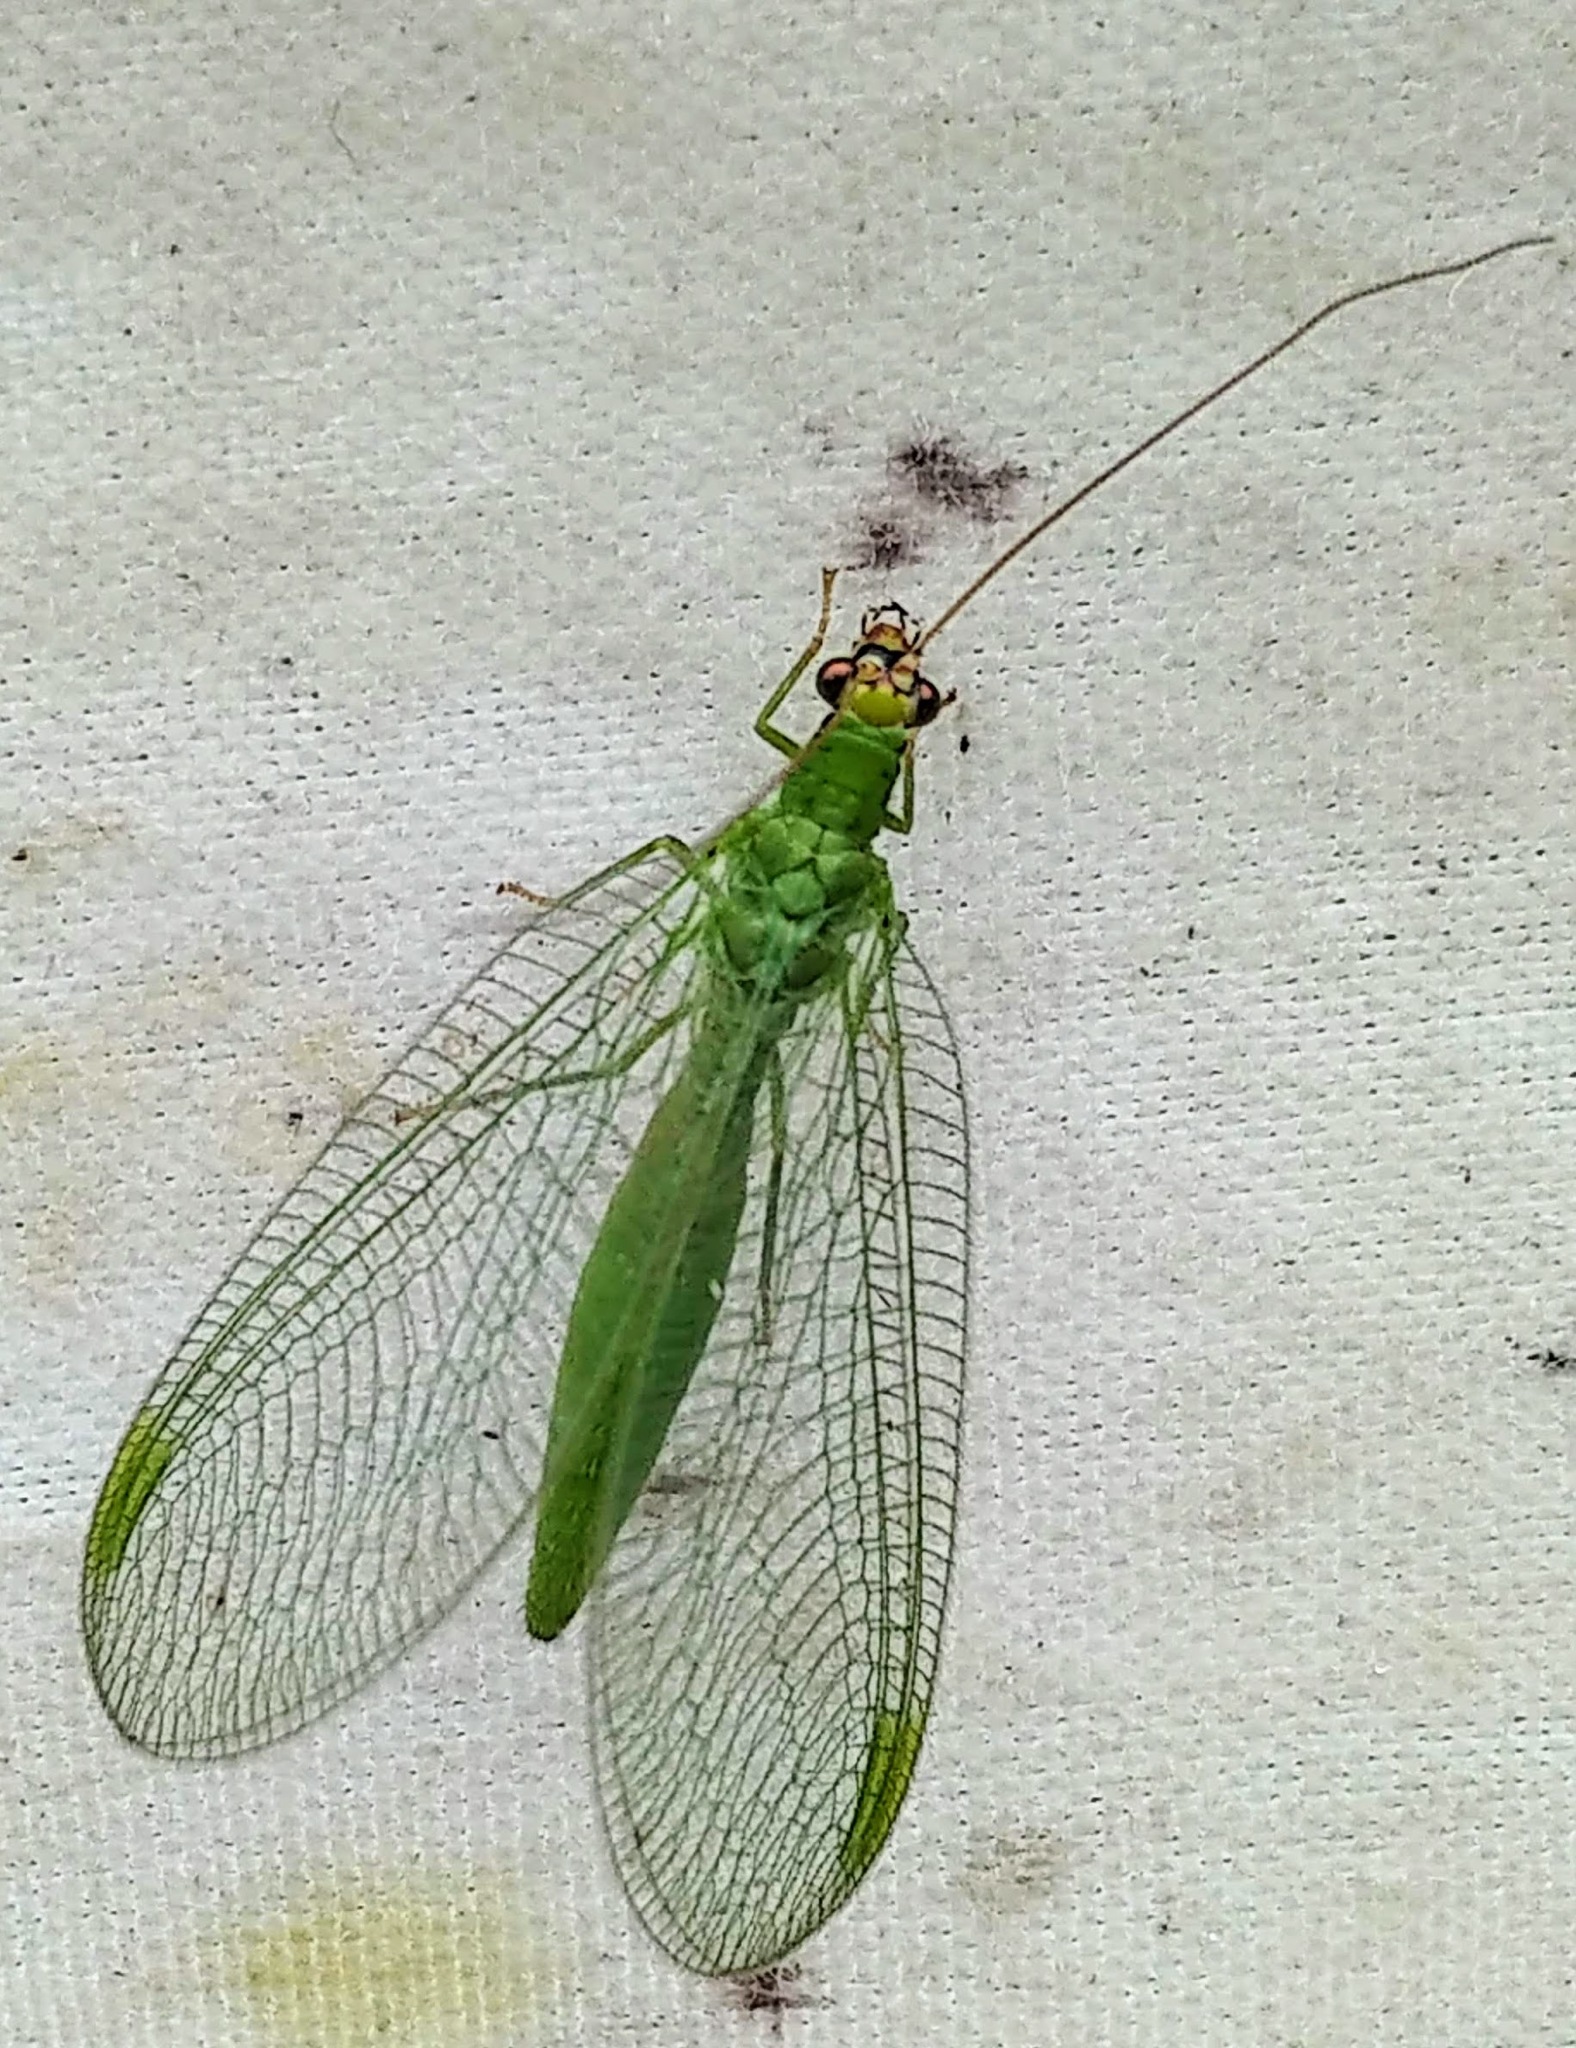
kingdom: Animalia
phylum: Arthropoda
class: Insecta
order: Neuroptera
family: Chrysopidae
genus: Chrysopa
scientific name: Chrysopa oculata
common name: Golden-eyed lacewing
